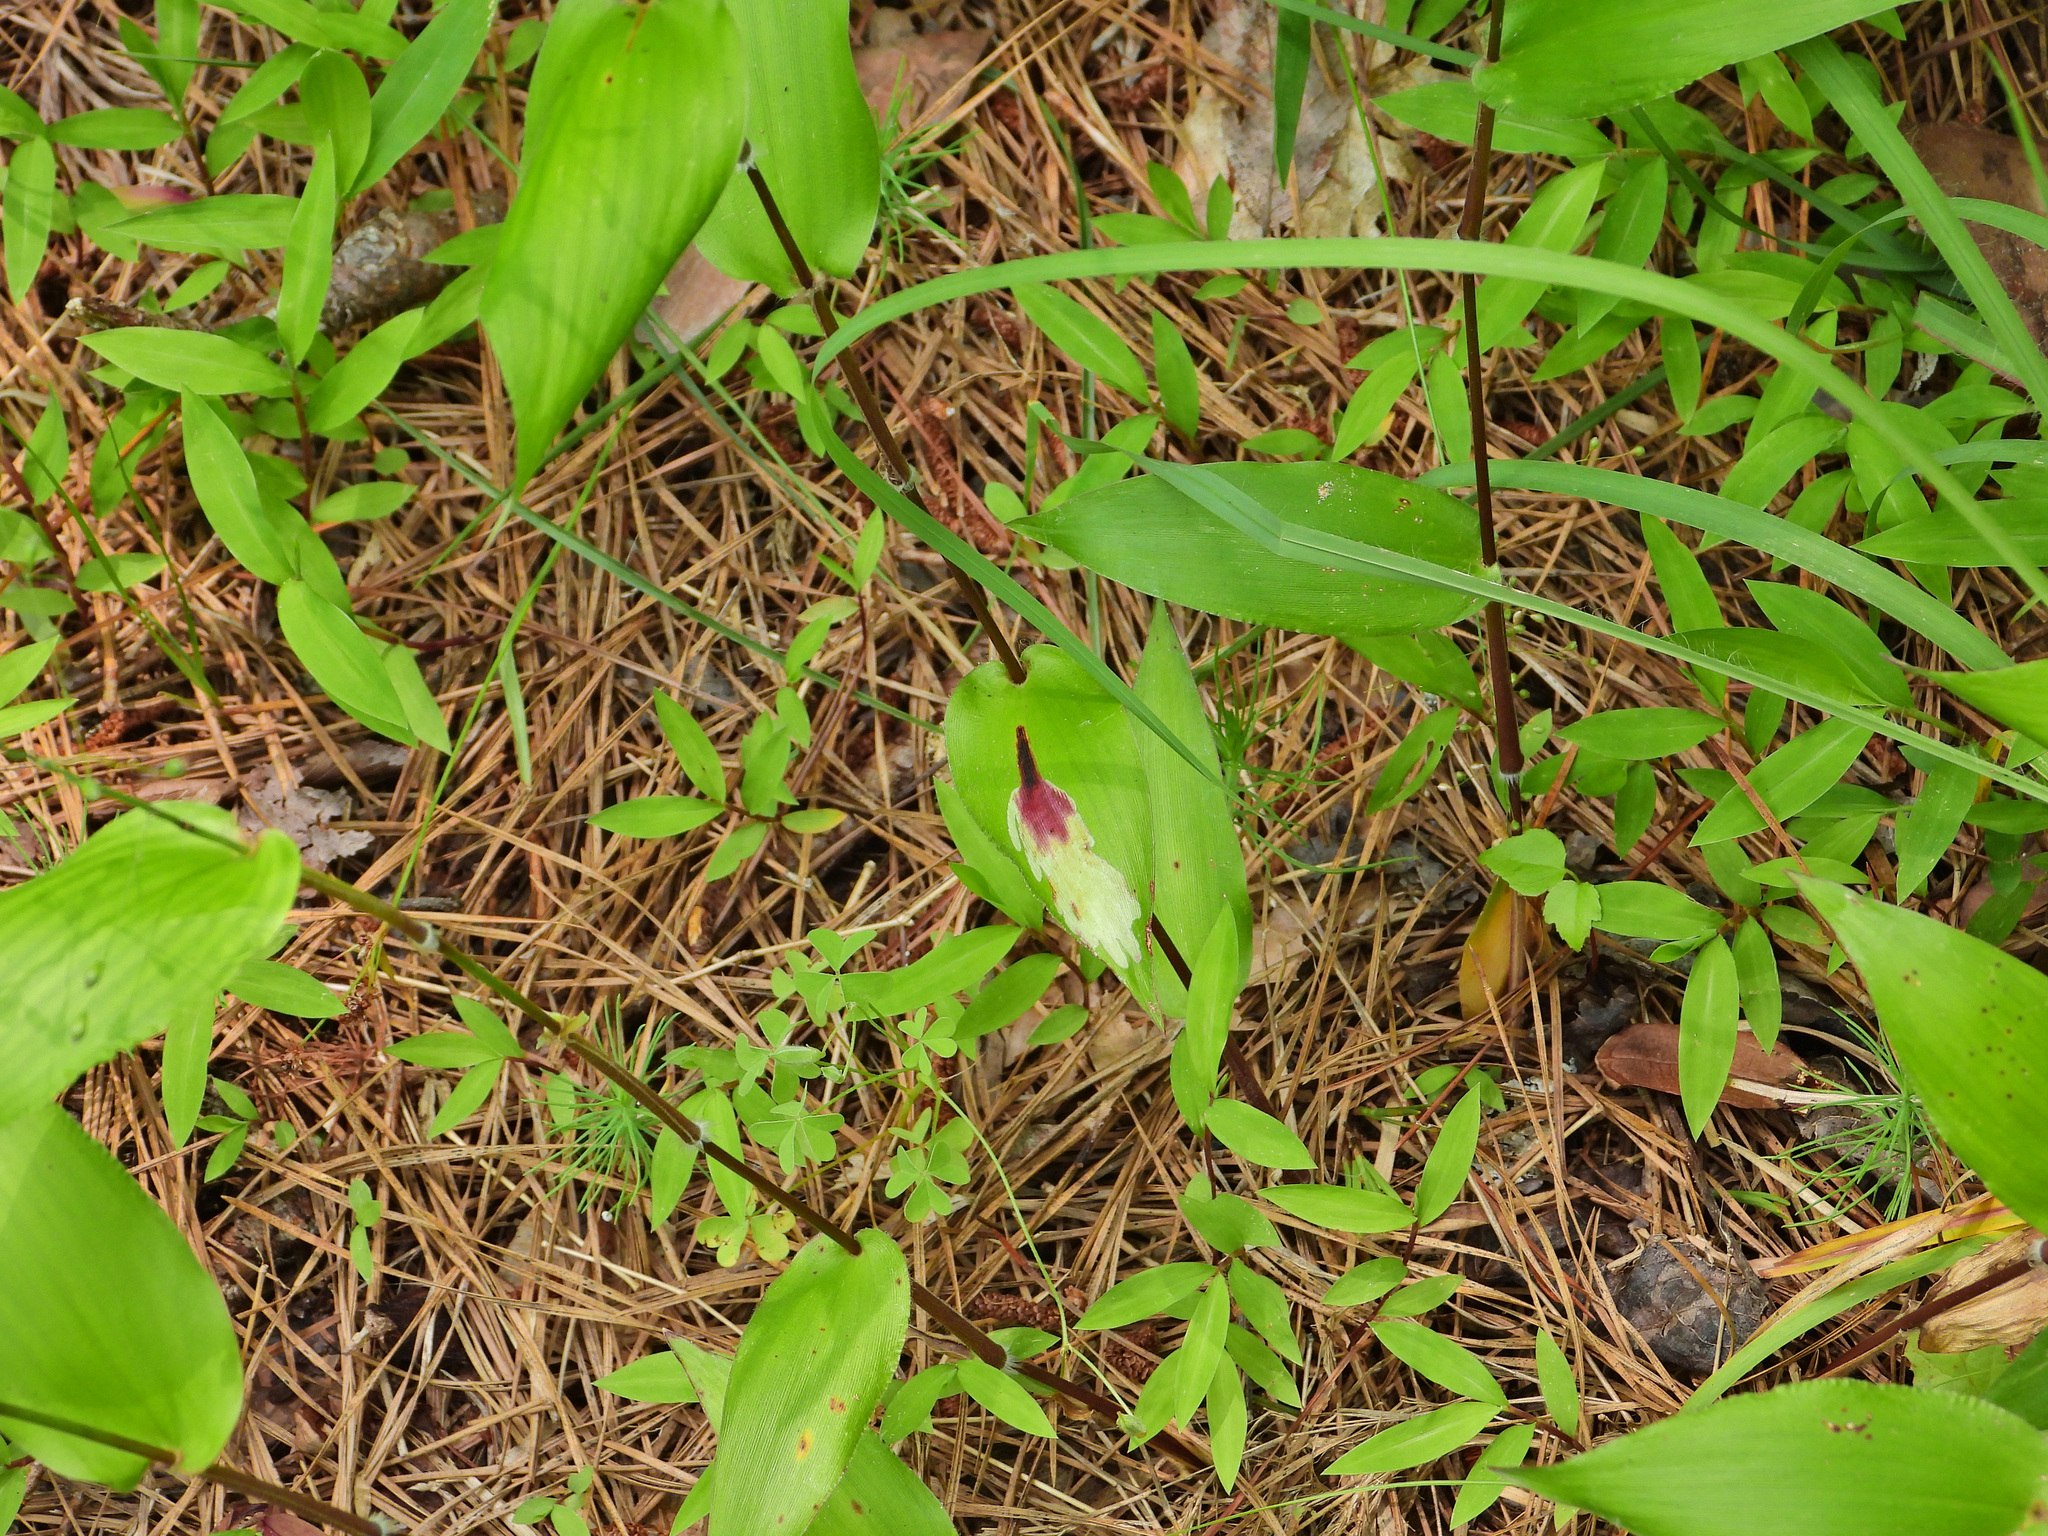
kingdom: Animalia
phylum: Arthropoda
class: Insecta
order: Diptera
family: Agromyzidae
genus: Cerodontha
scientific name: Cerodontha angulata
